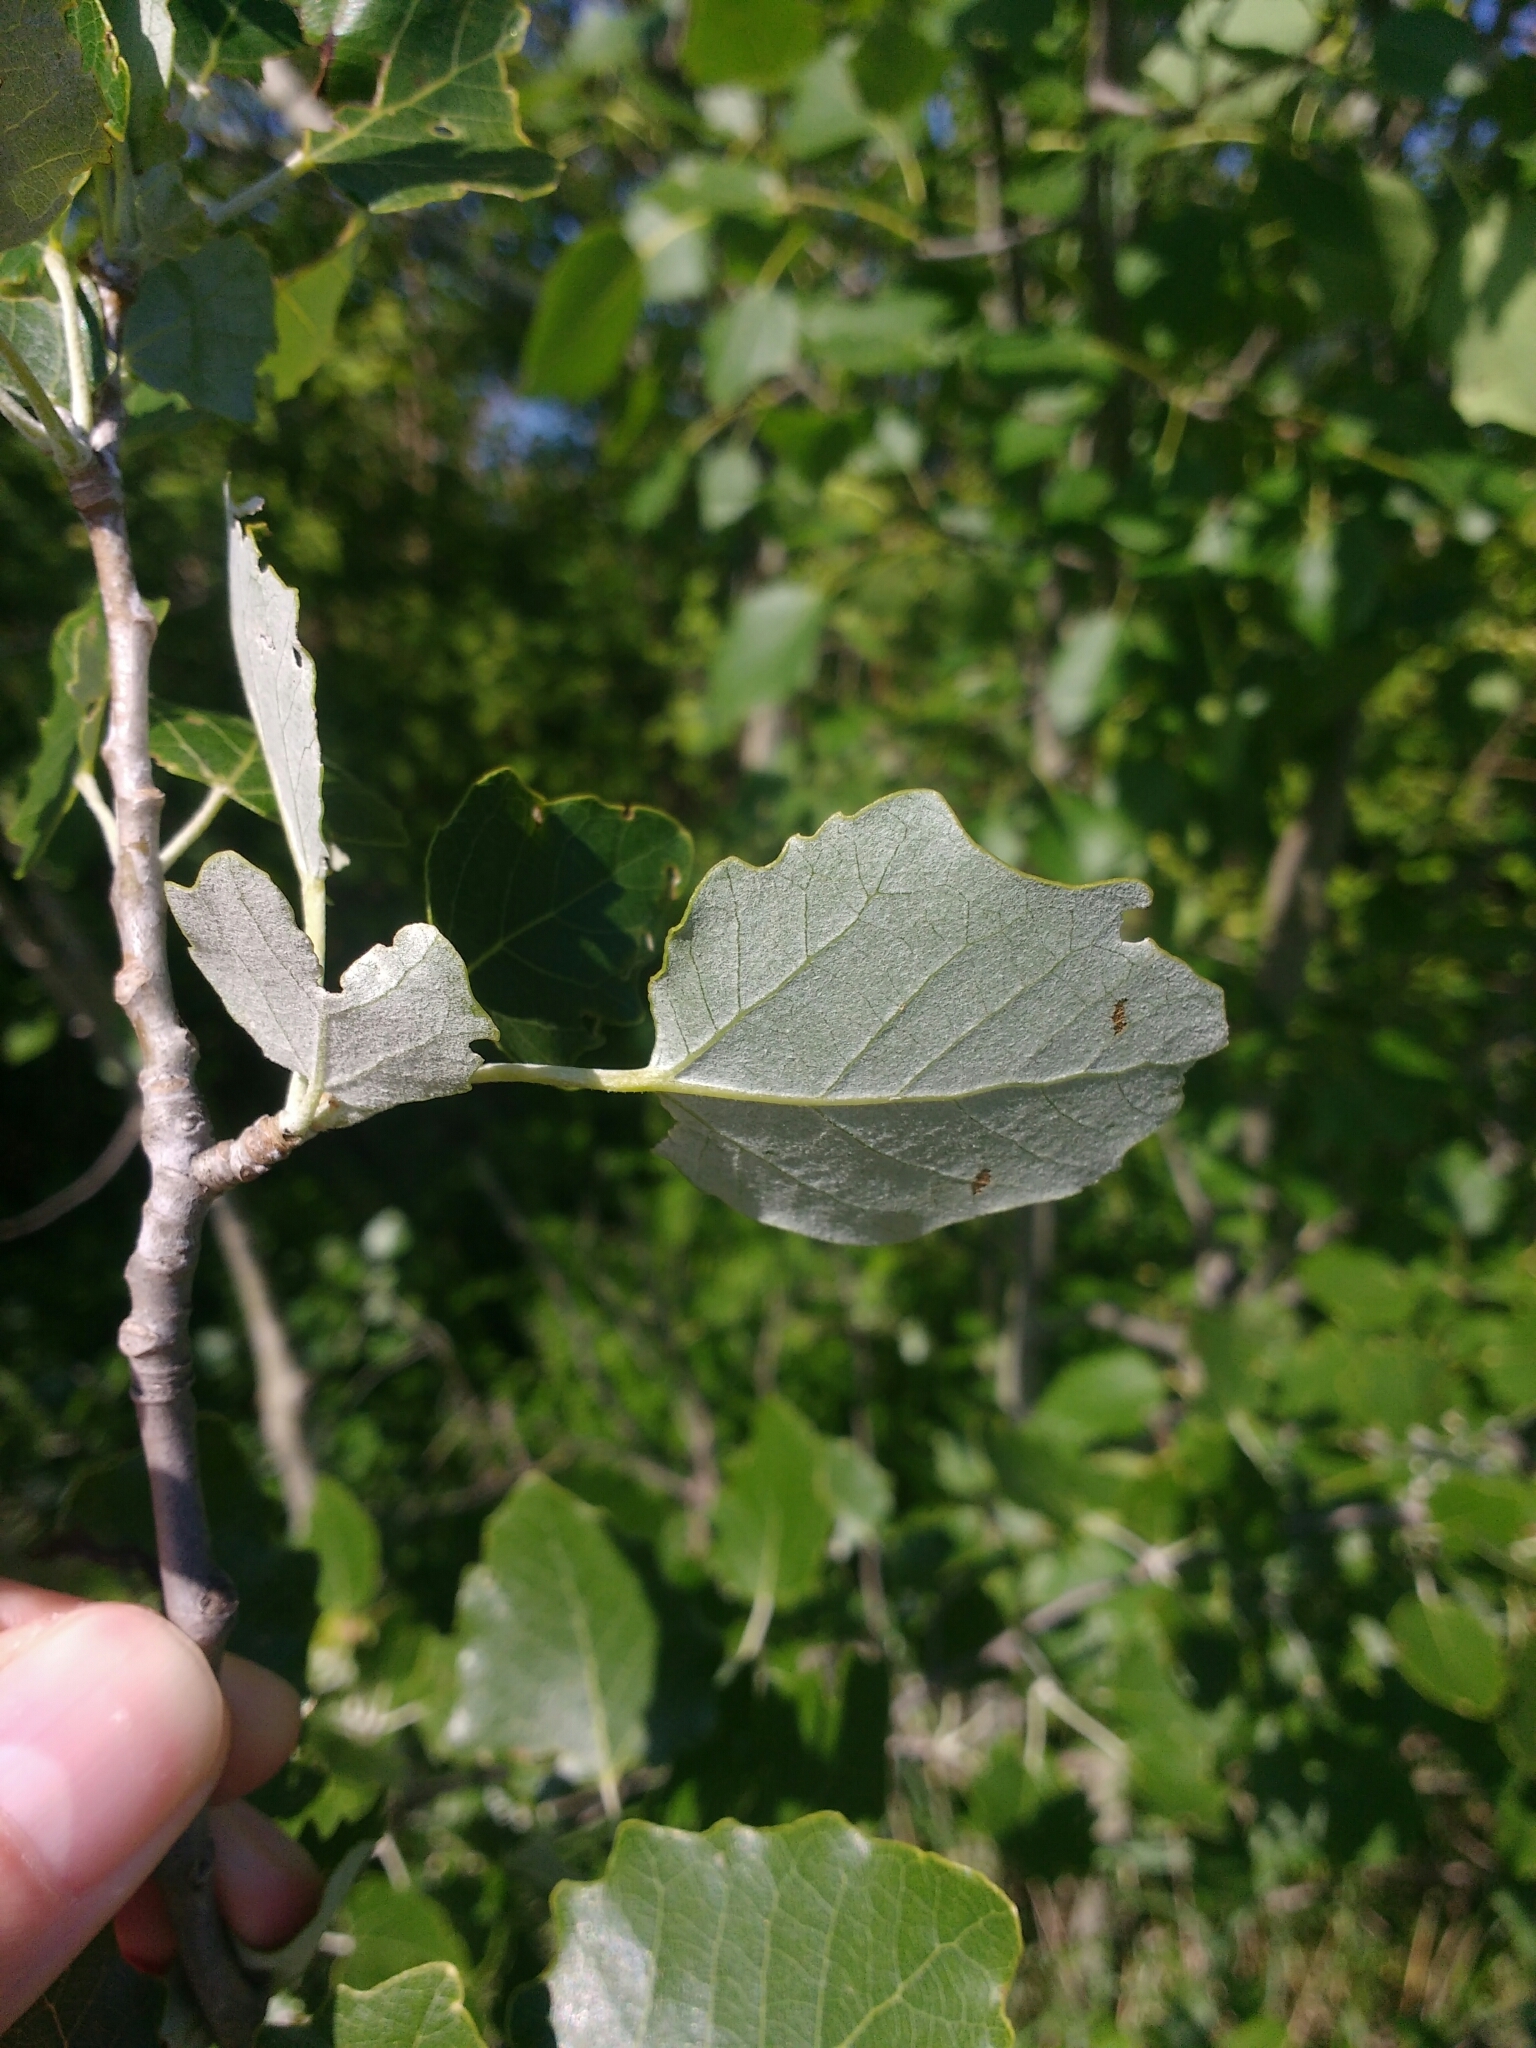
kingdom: Plantae
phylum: Tracheophyta
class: Magnoliopsida
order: Malpighiales
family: Salicaceae
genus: Populus
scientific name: Populus canescens
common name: Gray poplar
